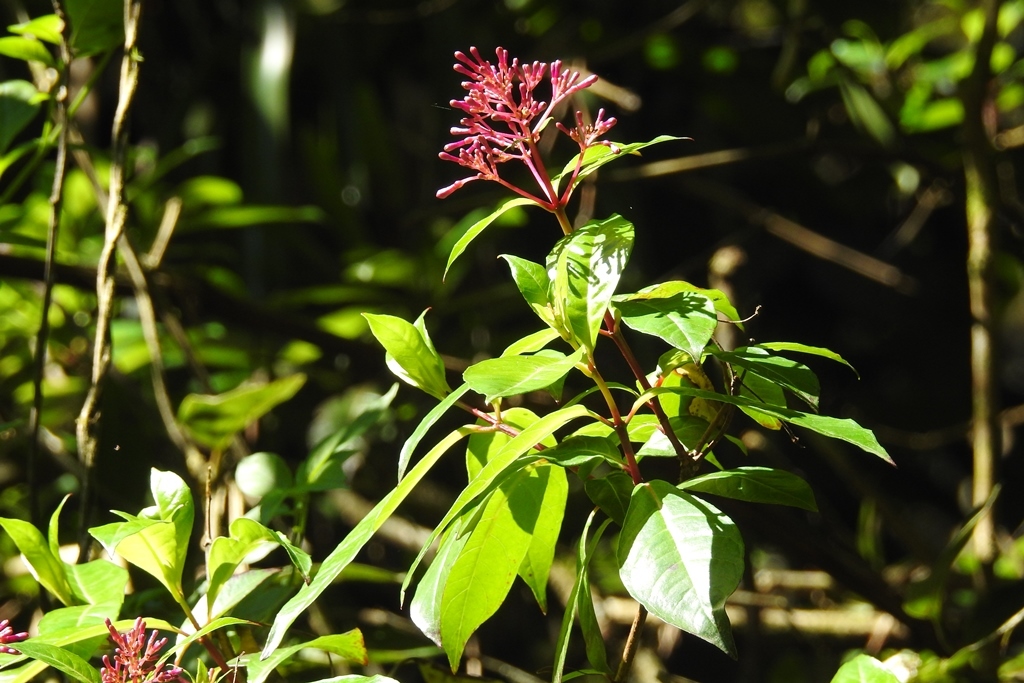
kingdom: Plantae
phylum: Tracheophyta
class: Magnoliopsida
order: Myrtales
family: Onagraceae
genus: Fuchsia
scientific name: Fuchsia paniculata
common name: Shrubby fuchsia
